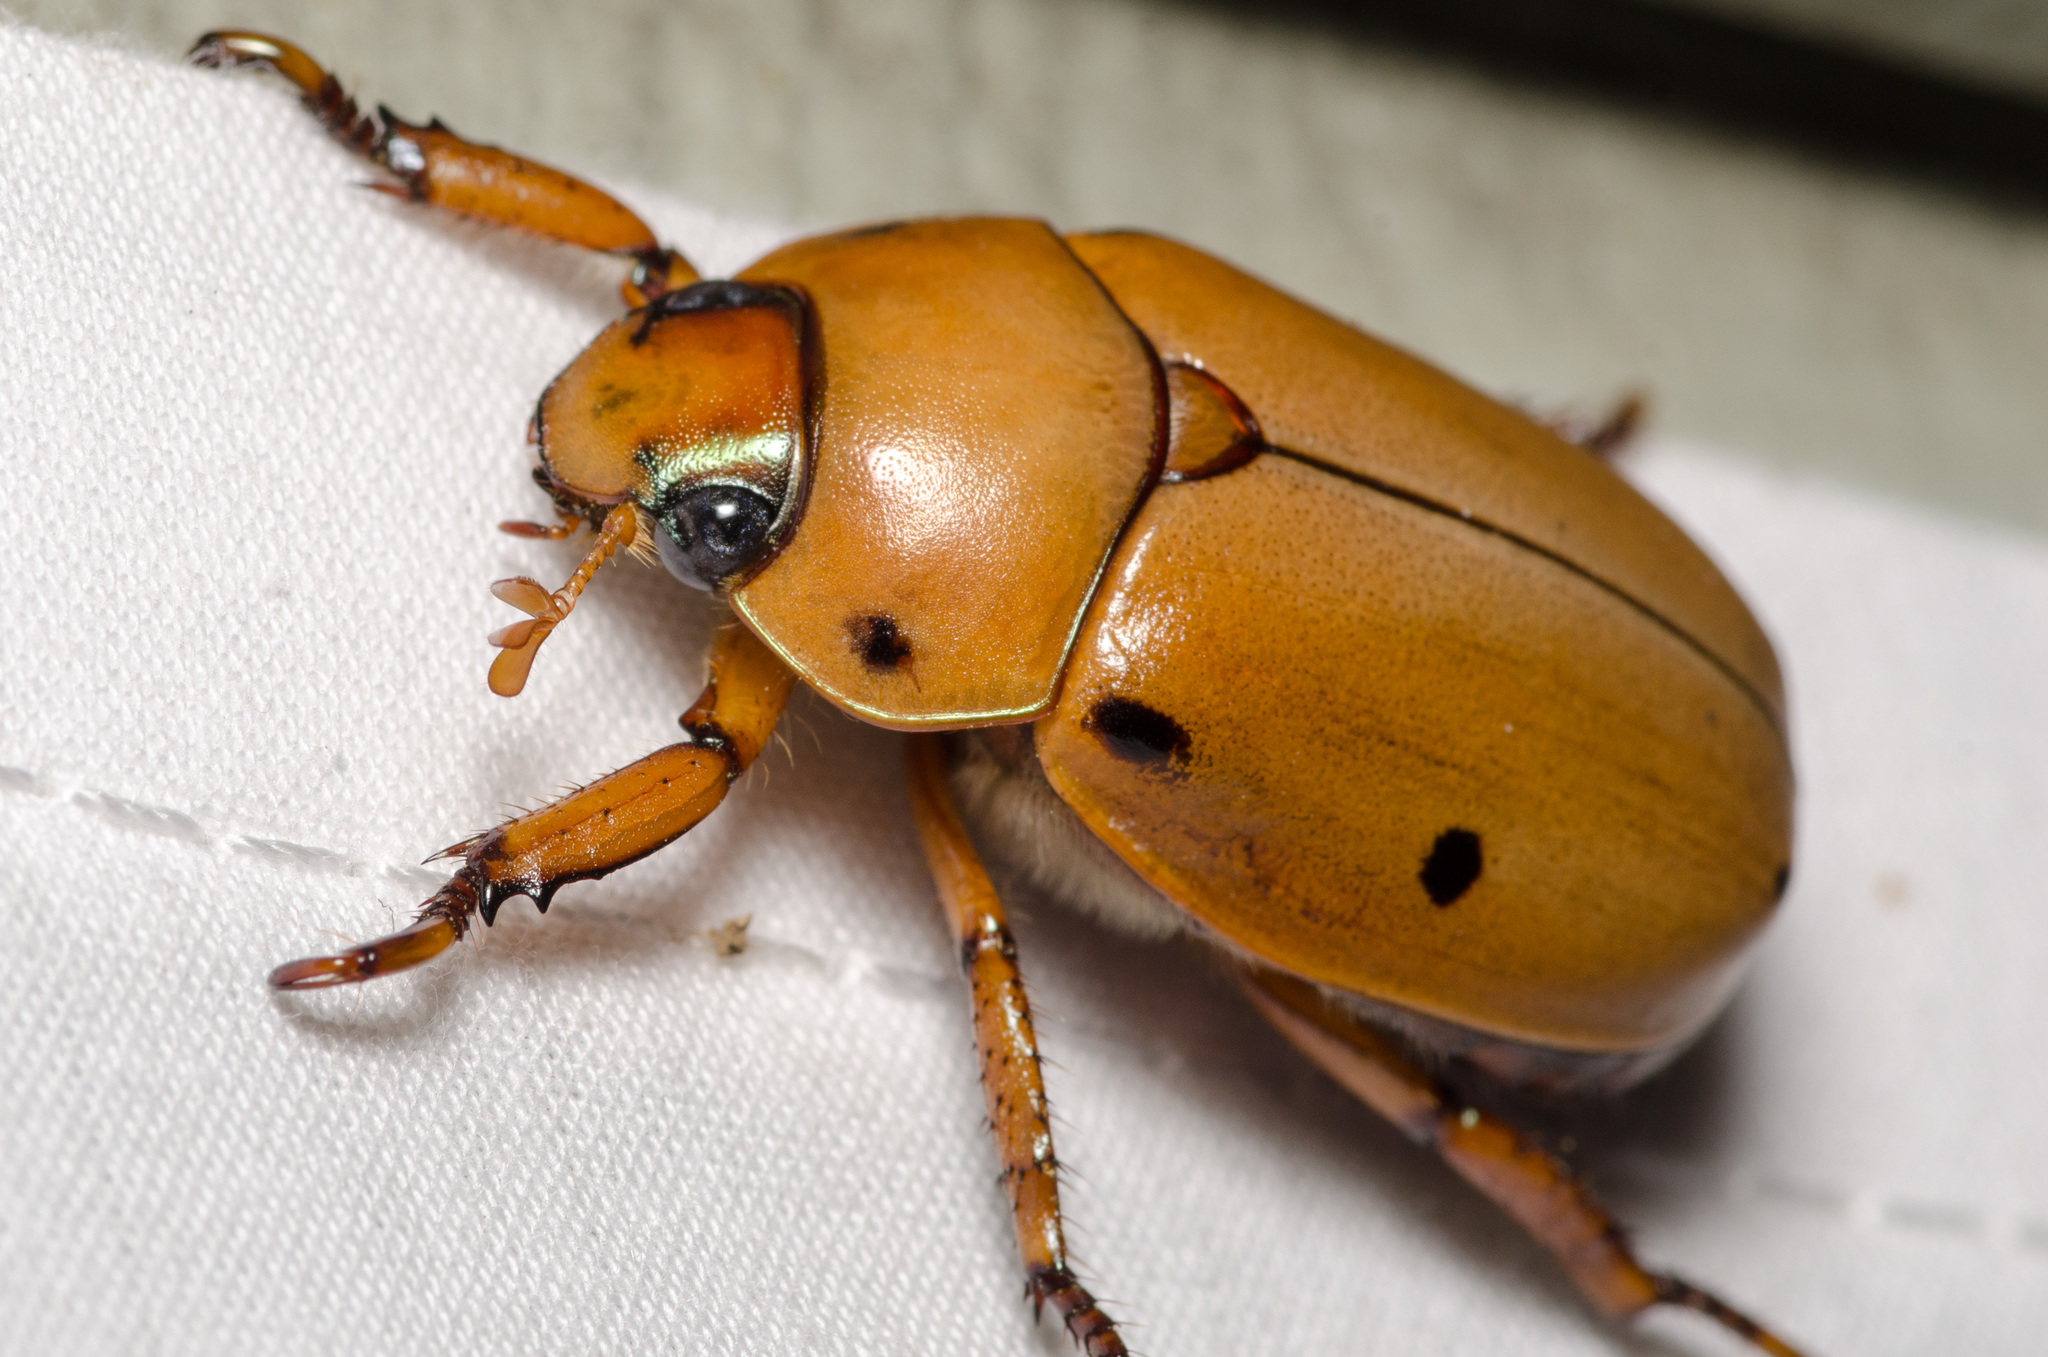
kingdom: Animalia
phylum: Arthropoda
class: Insecta
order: Coleoptera
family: Scarabaeidae
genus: Pelidnota
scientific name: Pelidnota punctata
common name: Grapevine beetle
